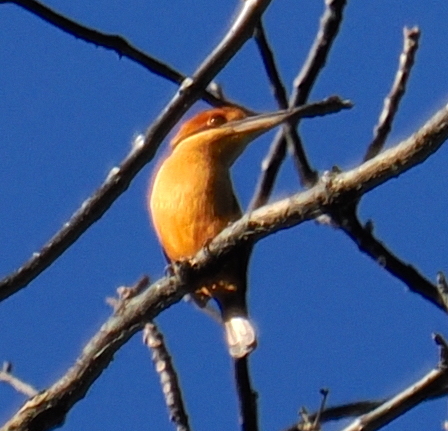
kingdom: Animalia
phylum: Chordata
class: Aves
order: Coraciiformes
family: Alcedinidae
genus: Todiramphus
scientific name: Todiramphus australasia
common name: Cinnamon-banded kingfisher
